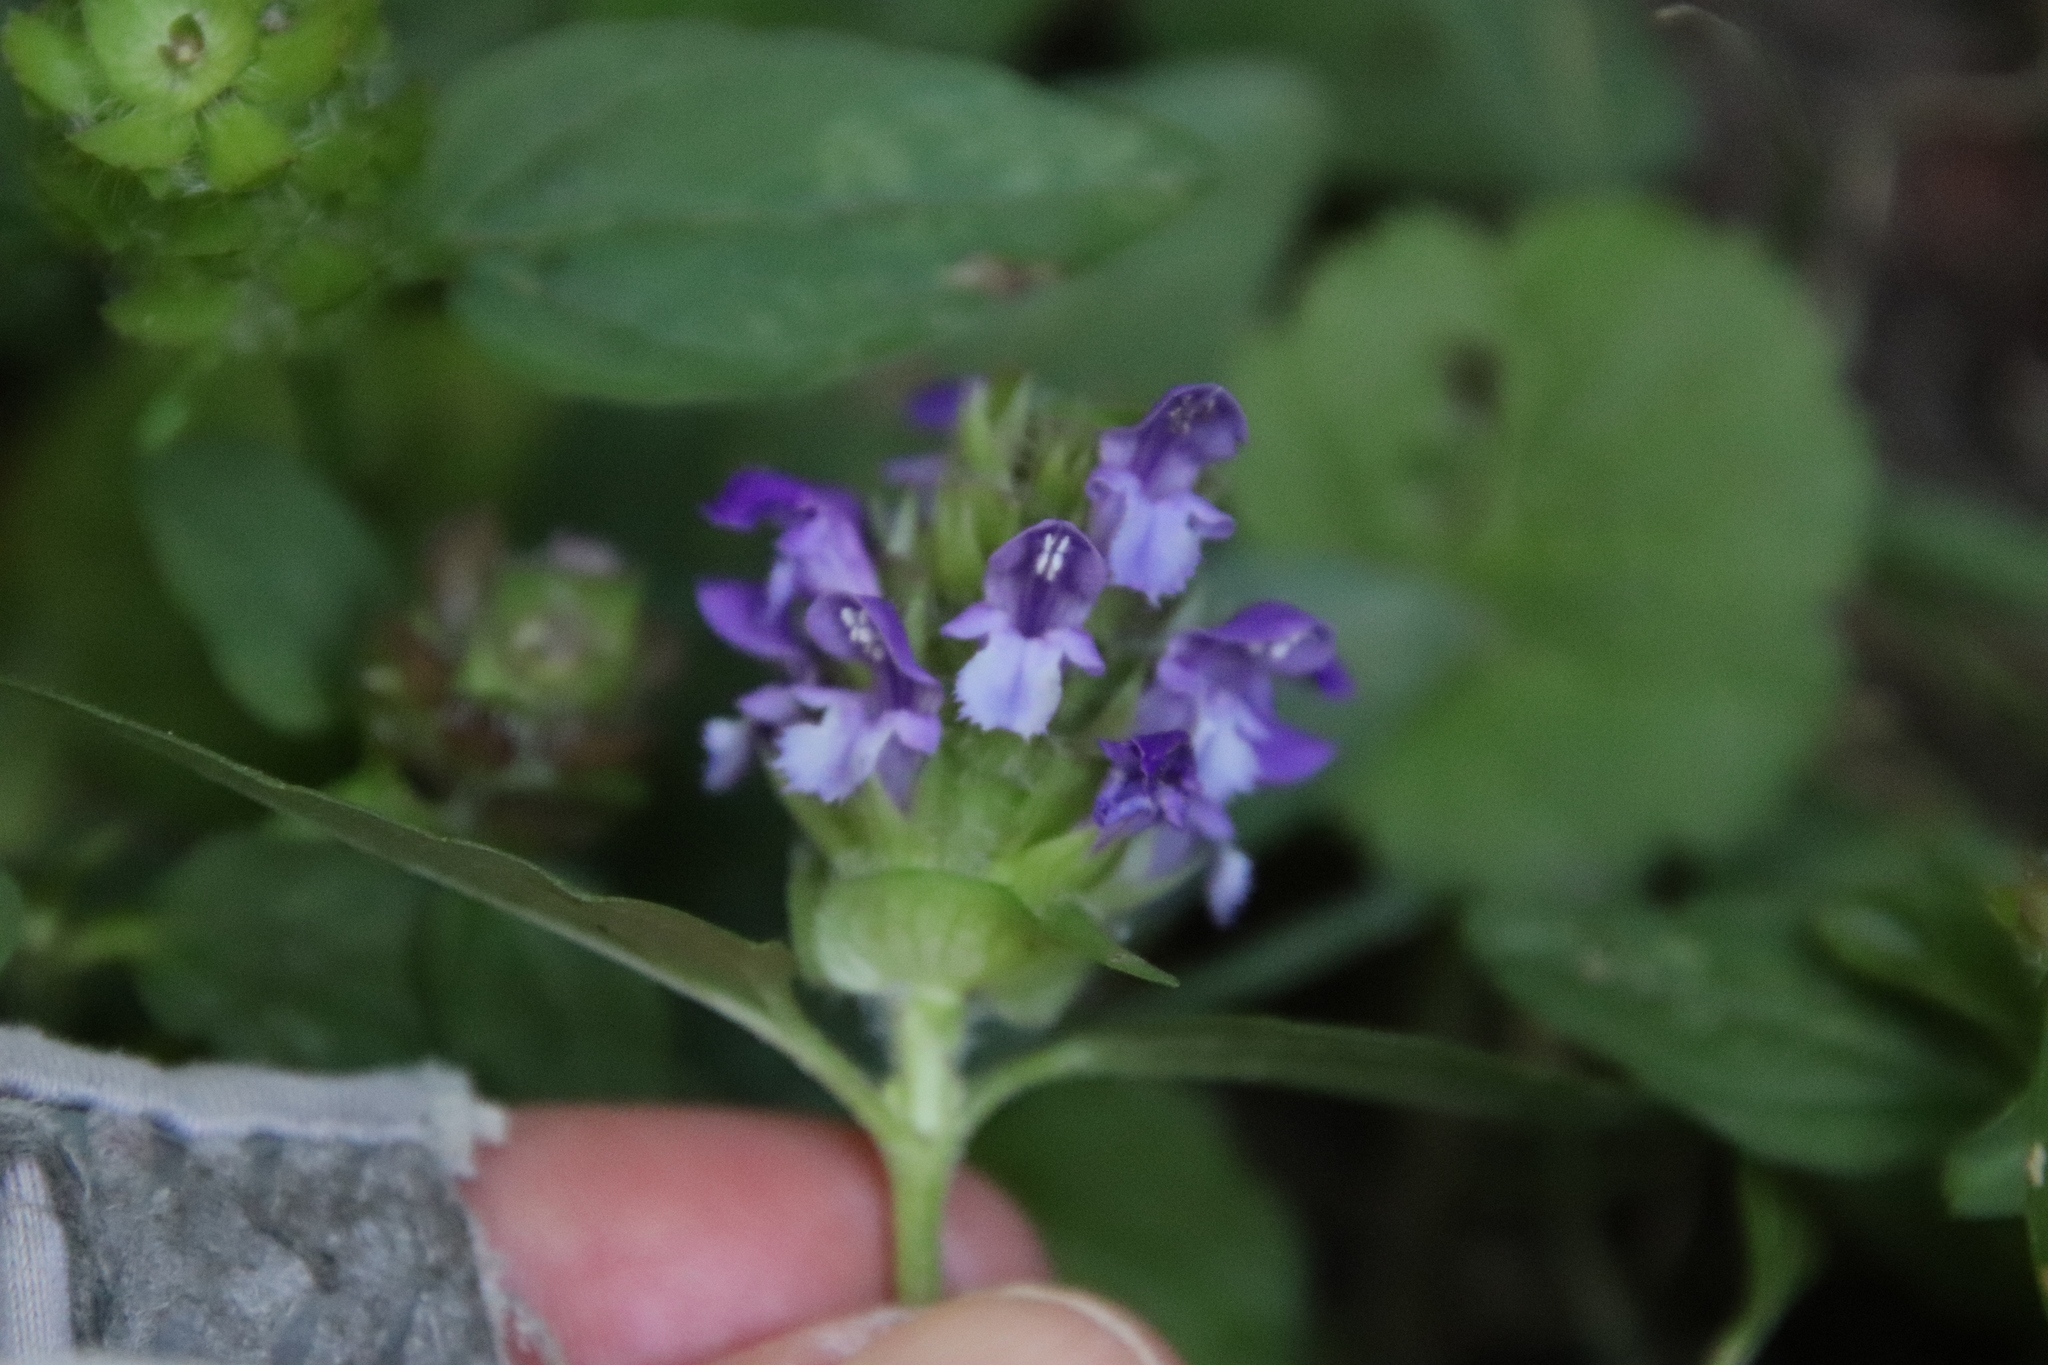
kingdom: Plantae
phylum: Tracheophyta
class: Magnoliopsida
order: Lamiales
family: Lamiaceae
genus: Prunella
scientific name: Prunella vulgaris
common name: Heal-all
